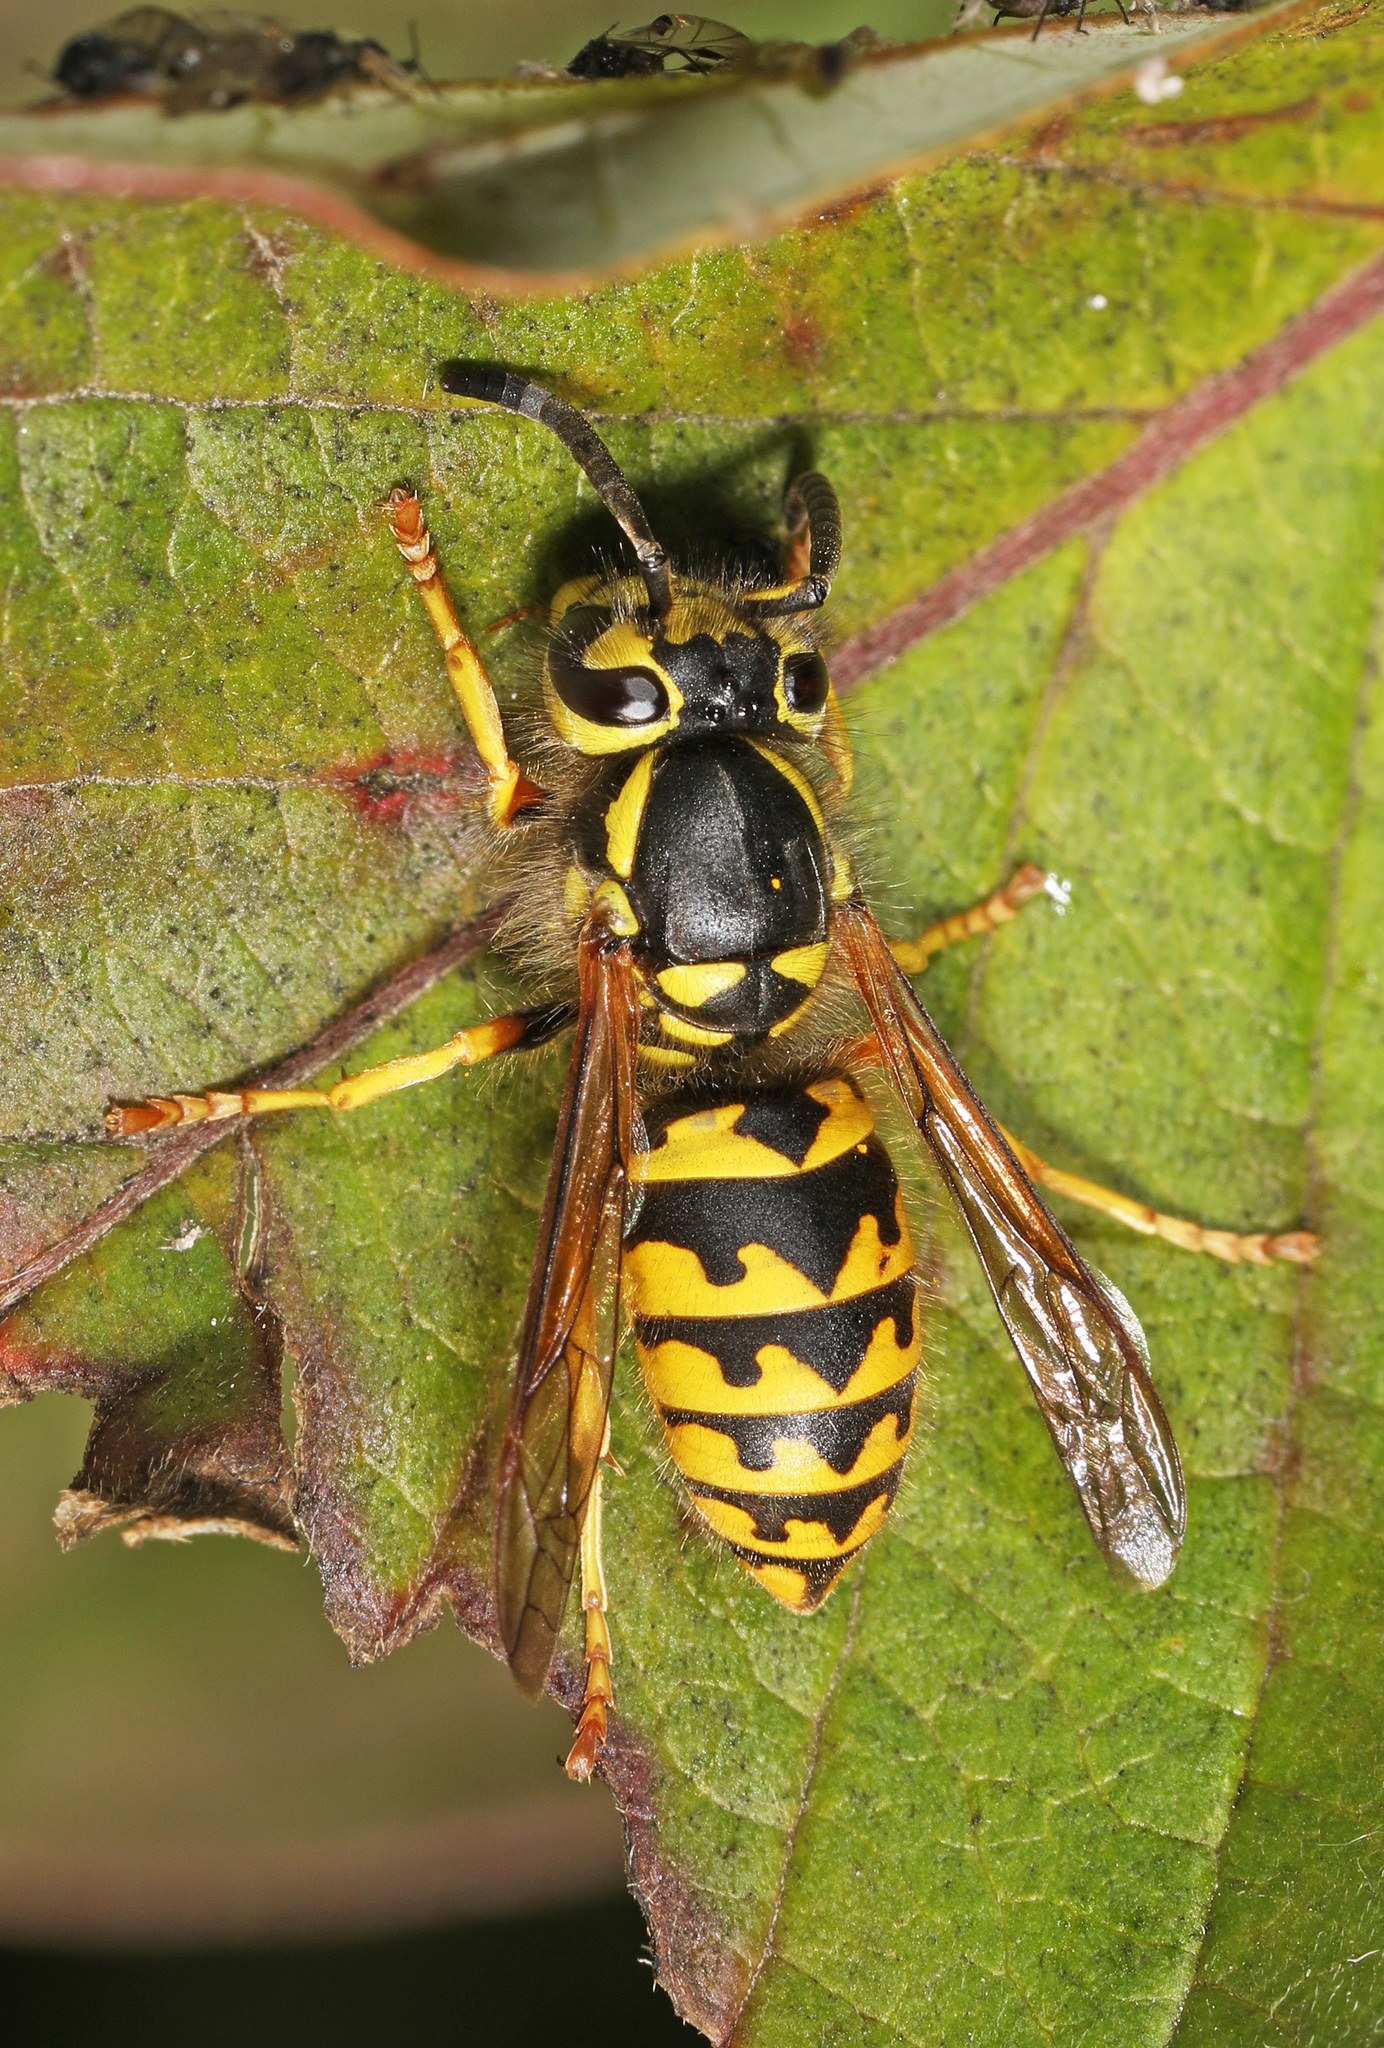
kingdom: Animalia
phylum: Arthropoda
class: Insecta
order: Hymenoptera
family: Vespidae
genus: Vespula
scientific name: Vespula pensylvanica
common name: Western yellowjacket
